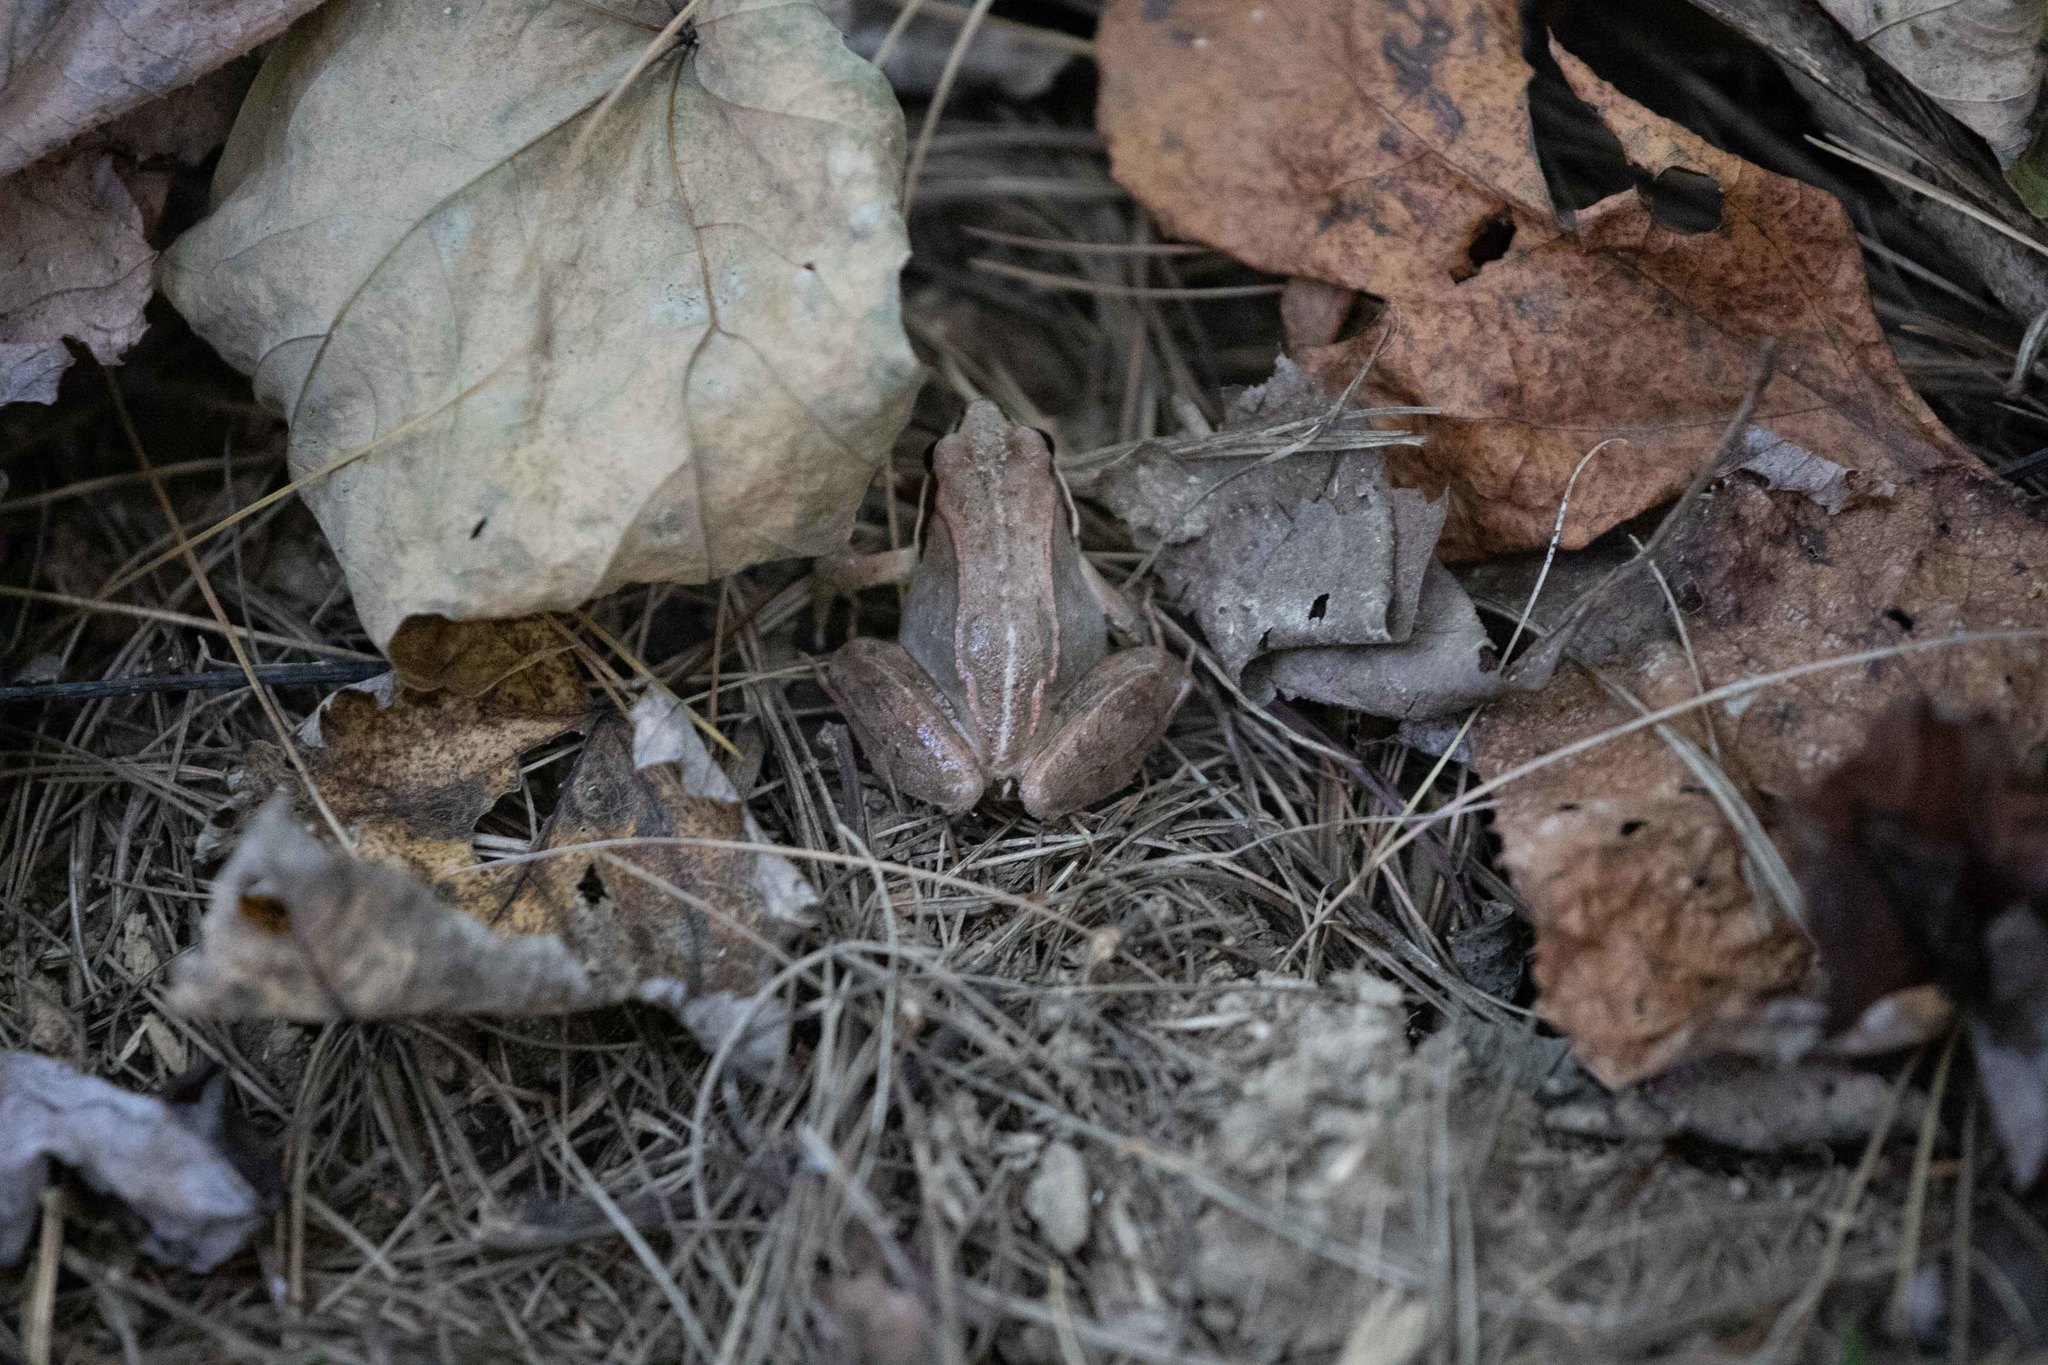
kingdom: Animalia
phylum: Chordata
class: Amphibia
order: Anura
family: Ranidae
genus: Lithobates
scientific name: Lithobates sylvaticus
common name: Wood frog
